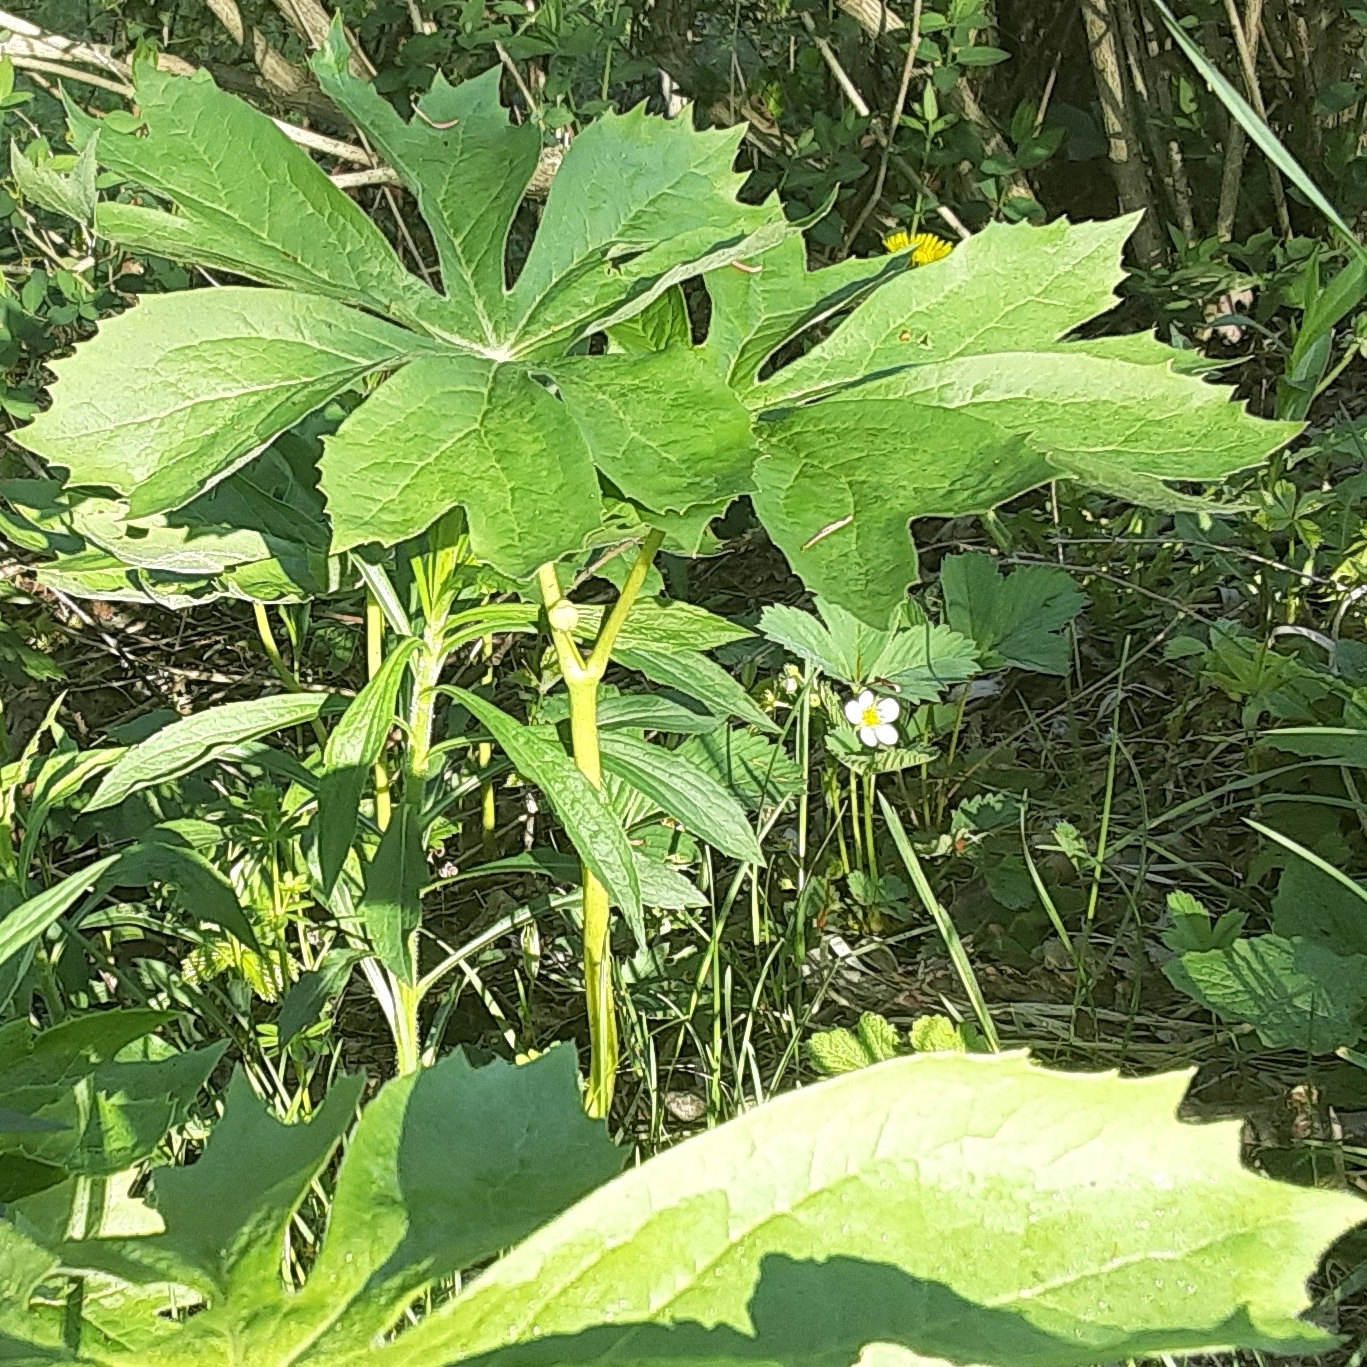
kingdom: Plantae
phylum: Tracheophyta
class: Magnoliopsida
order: Ranunculales
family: Berberidaceae
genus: Podophyllum
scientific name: Podophyllum peltatum
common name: Wild mandrake
